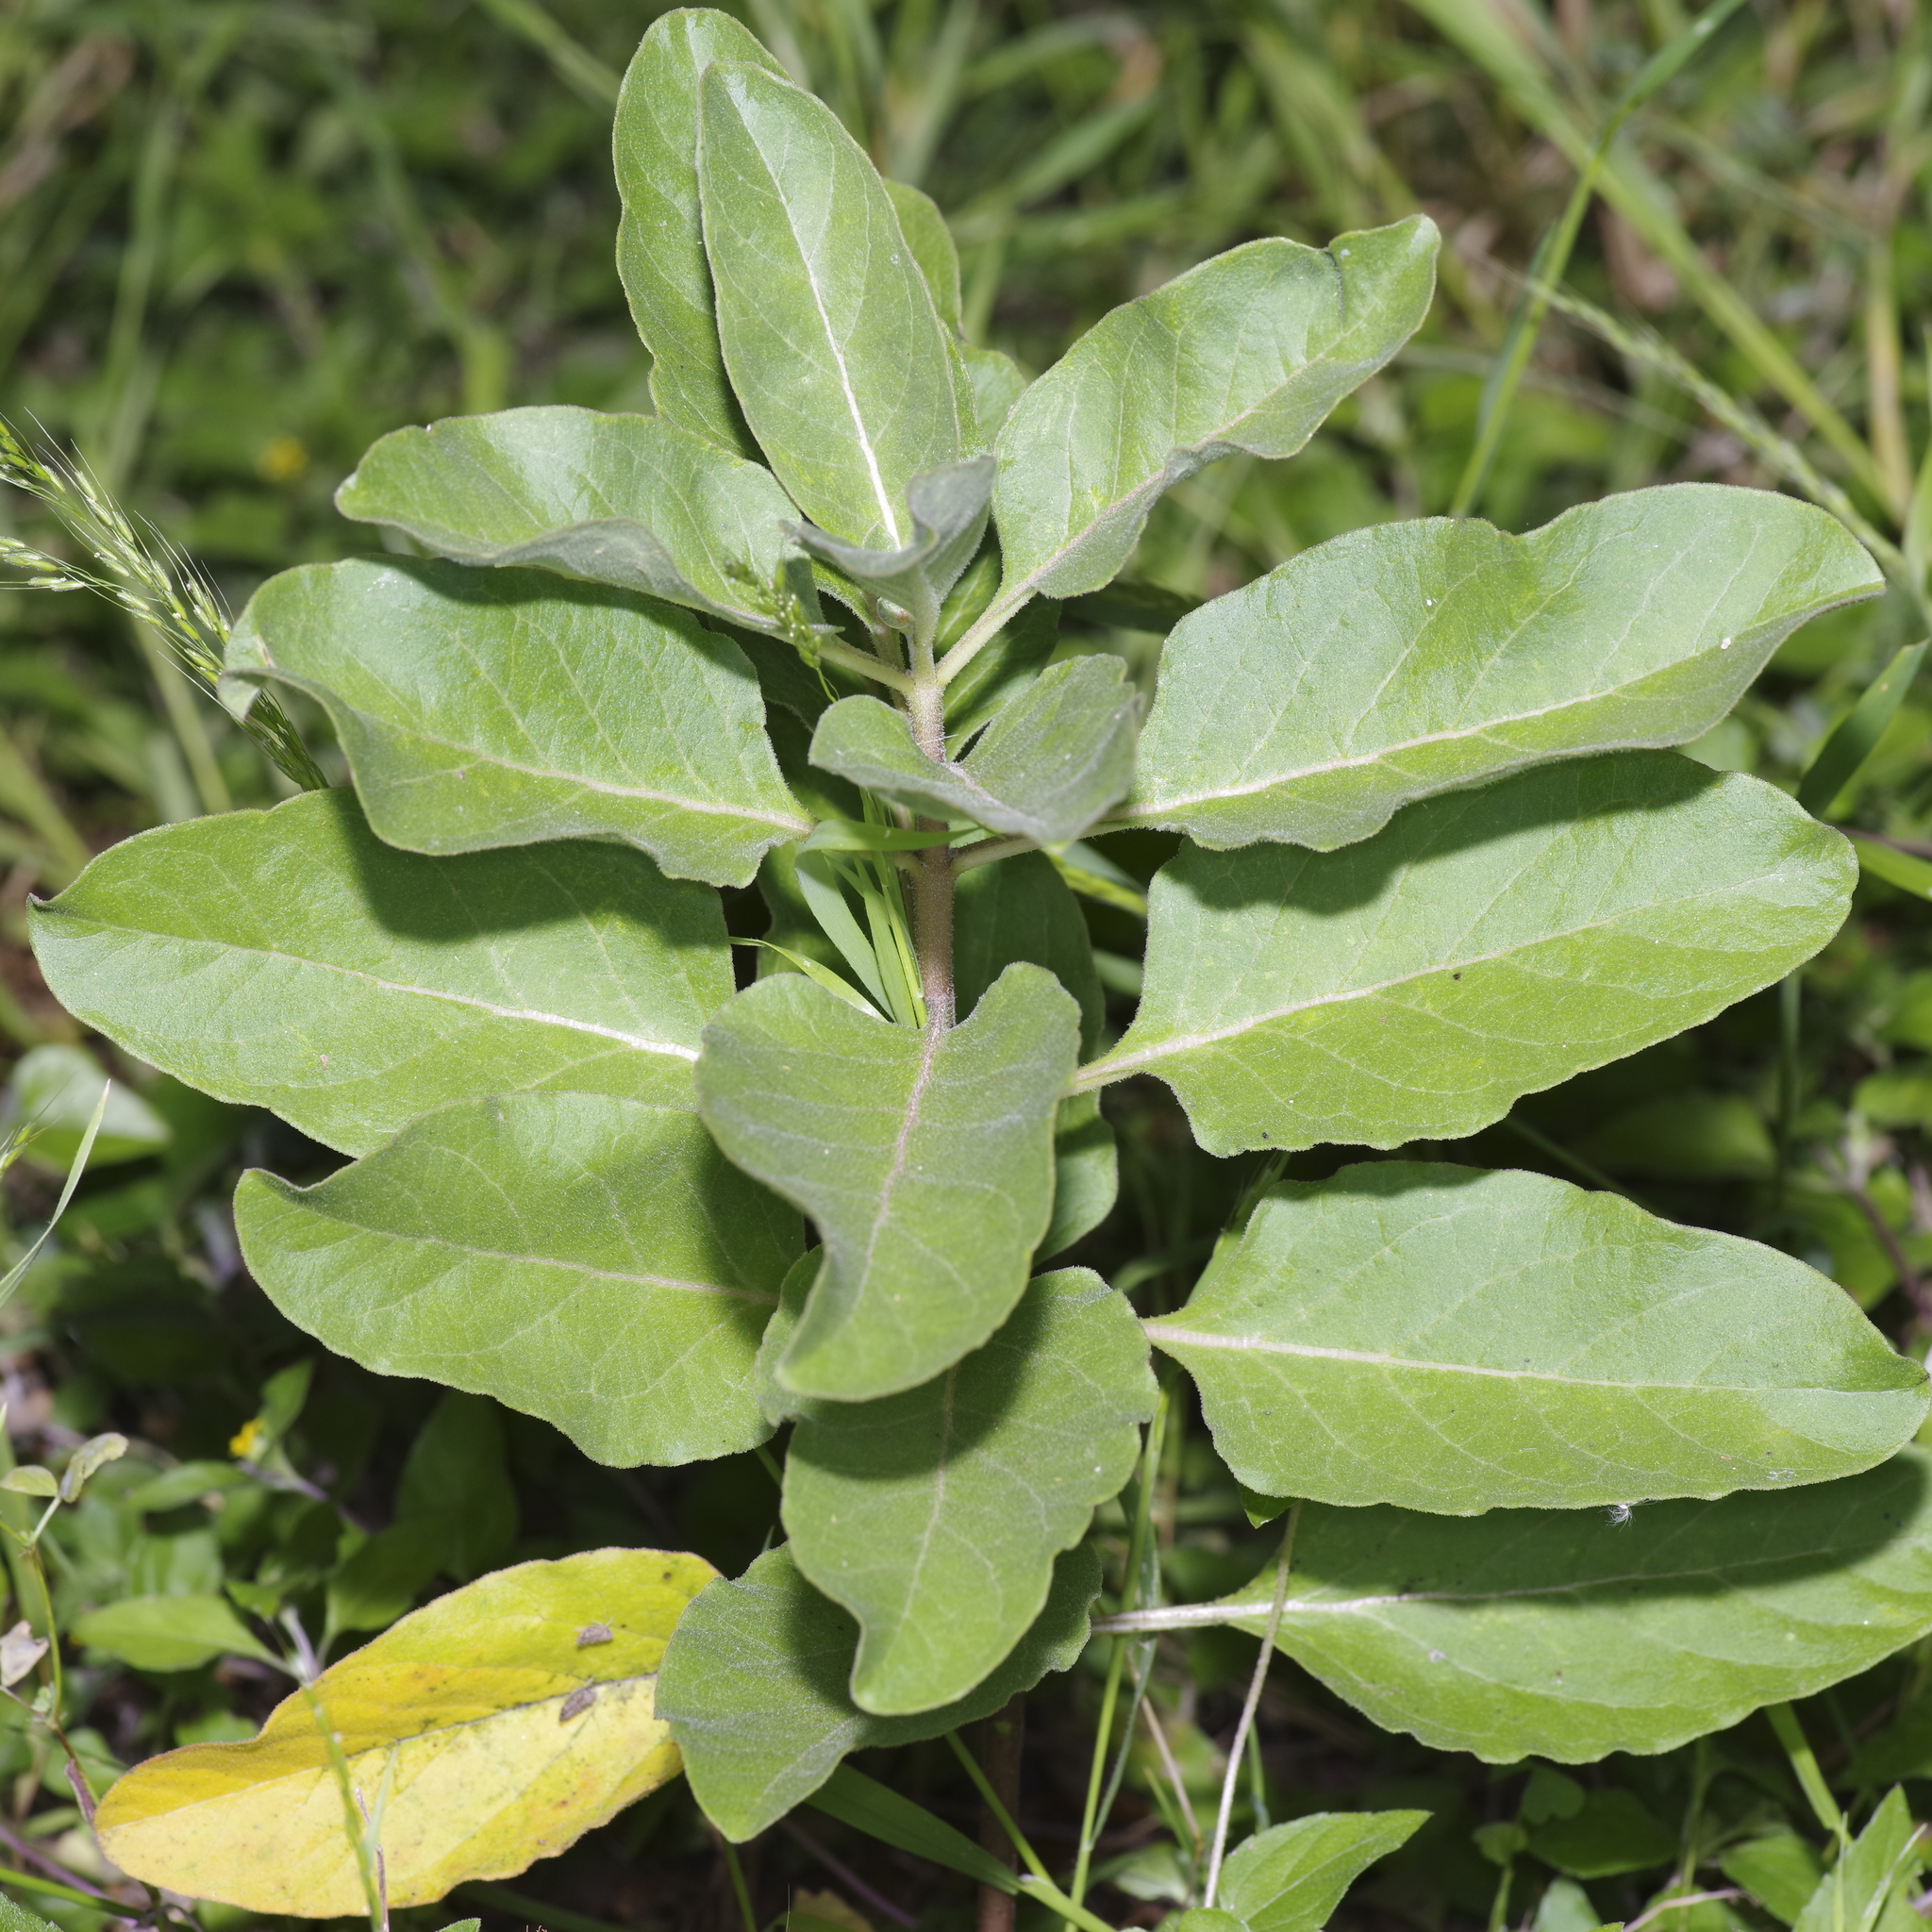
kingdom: Plantae
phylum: Tracheophyta
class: Magnoliopsida
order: Gentianales
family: Apocynaceae
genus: Asclepias
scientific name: Asclepias oenotheroides
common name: Zizotes milkweed
